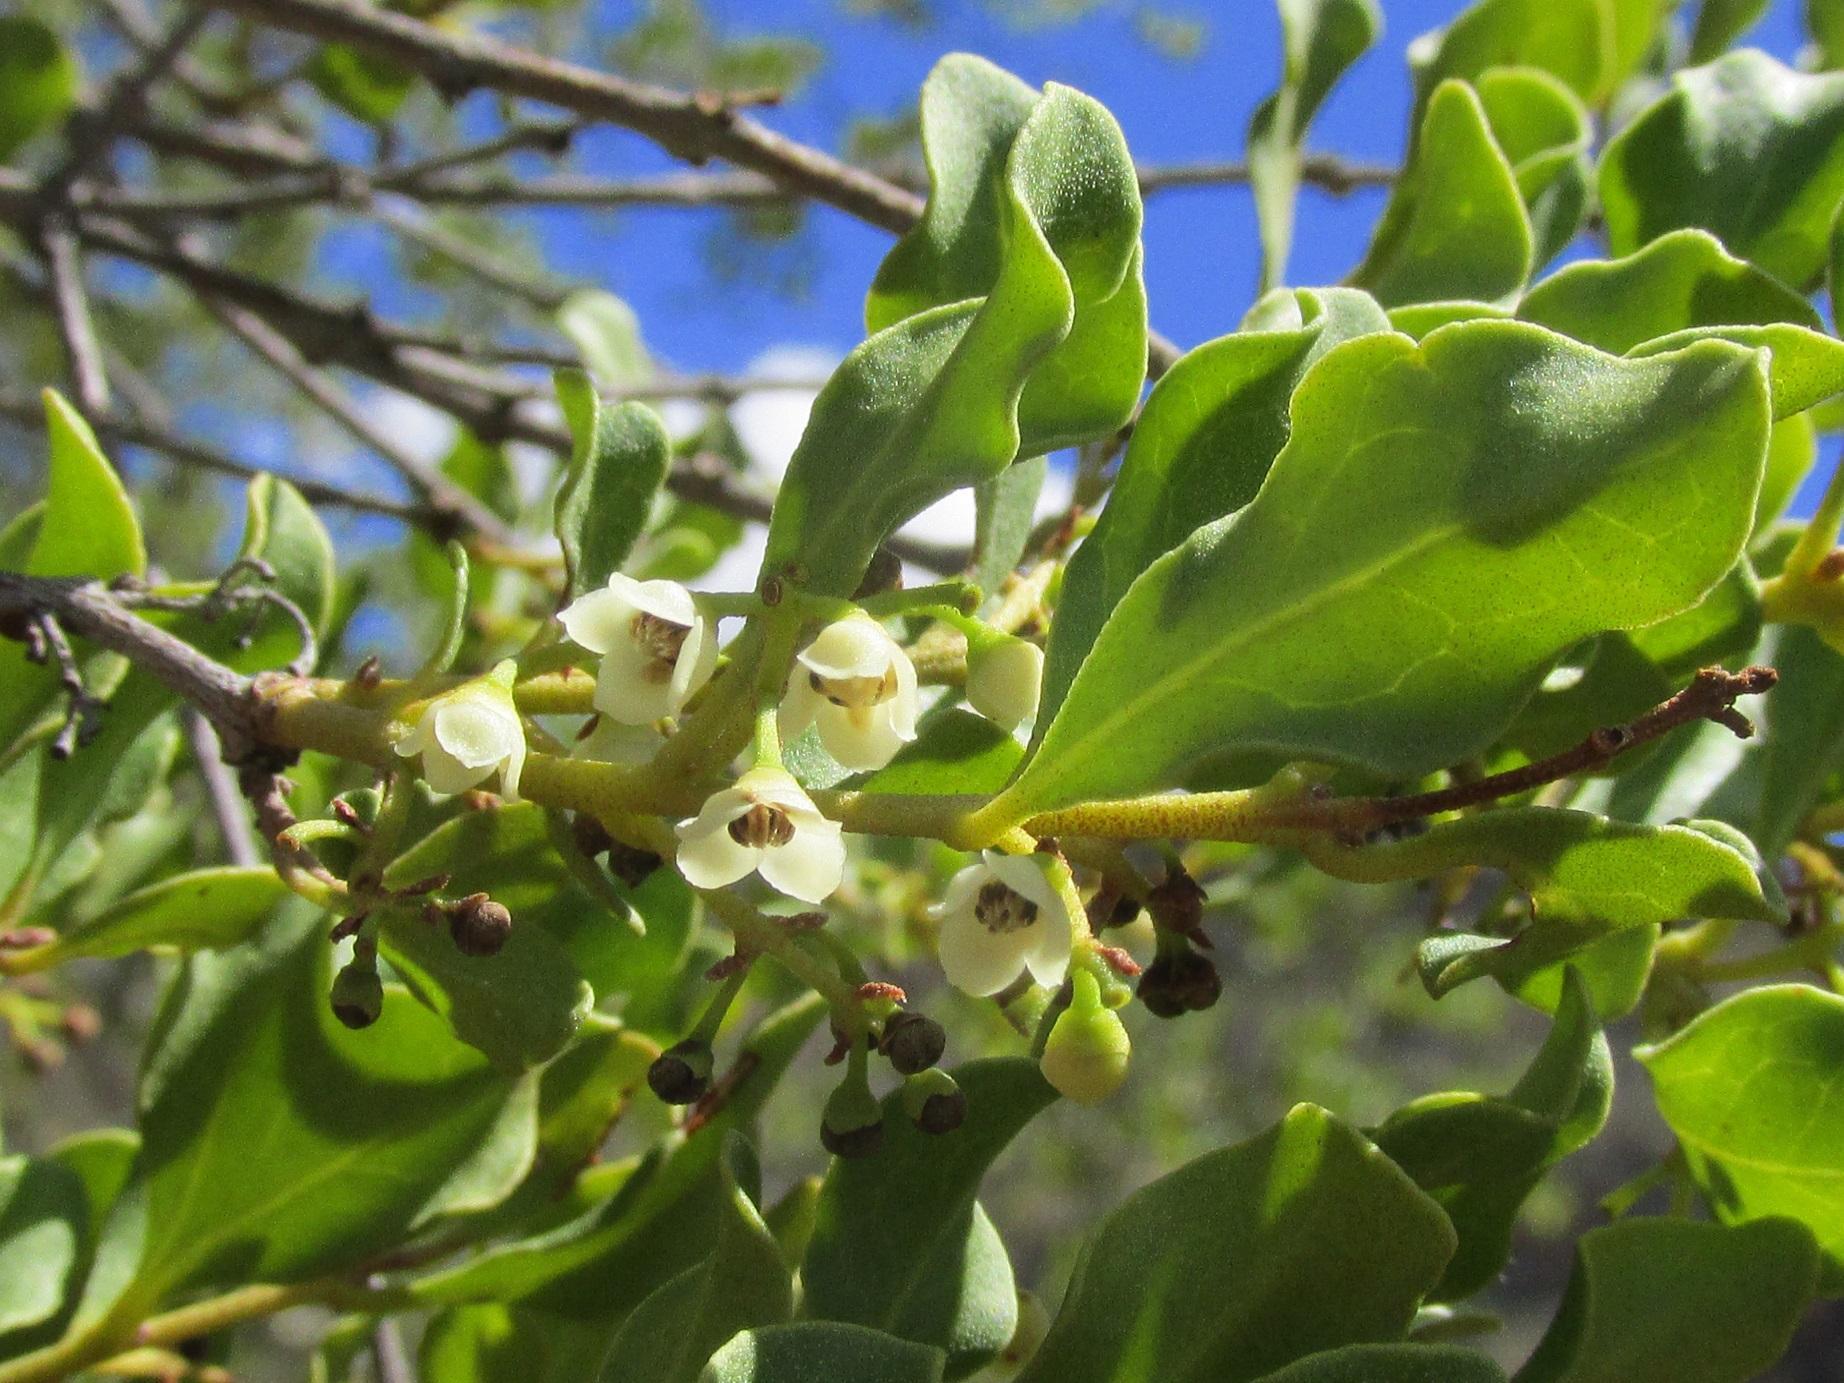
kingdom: Plantae
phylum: Tracheophyta
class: Magnoliopsida
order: Ericales
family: Ebenaceae
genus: Euclea
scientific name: Euclea undulata
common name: Small-leaved guarri
